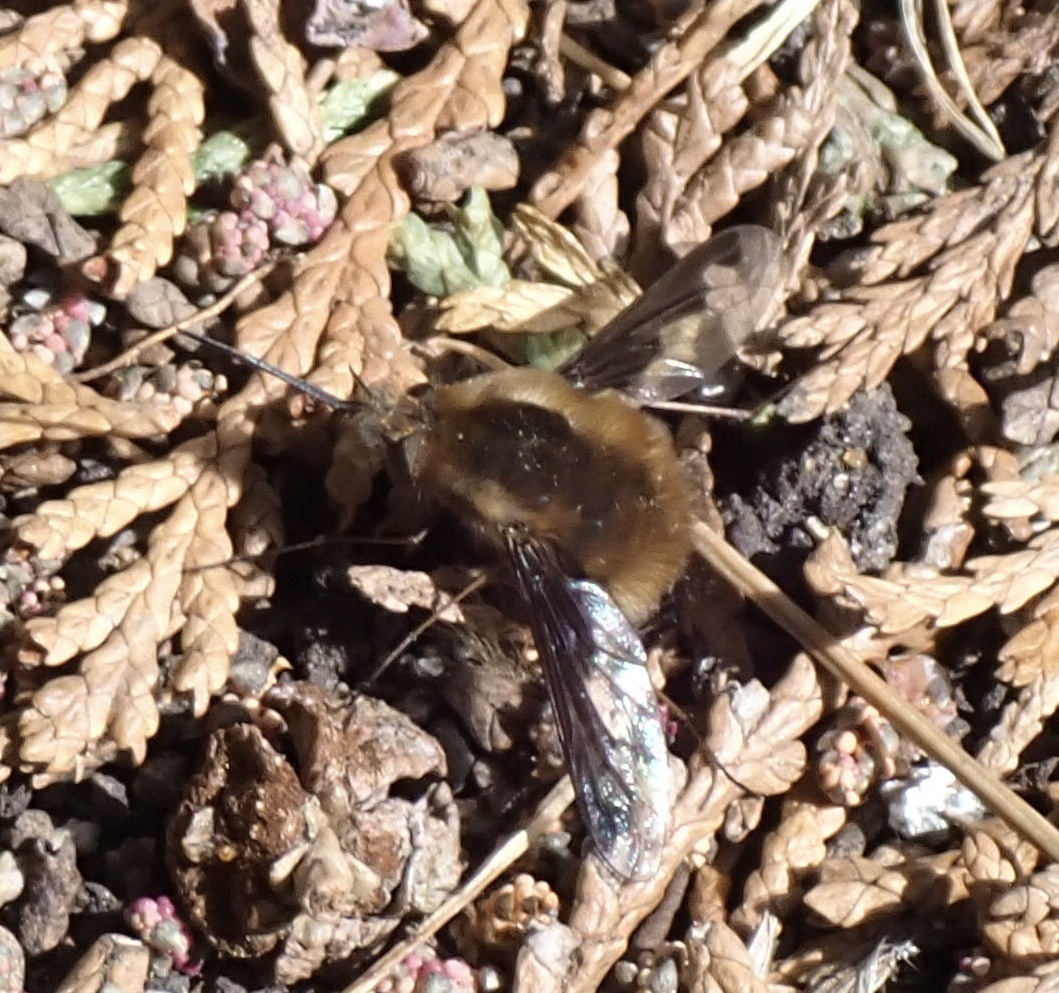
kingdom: Animalia
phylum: Arthropoda
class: Insecta
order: Diptera
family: Bombyliidae
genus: Bombylius
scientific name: Bombylius major
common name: Bee fly
